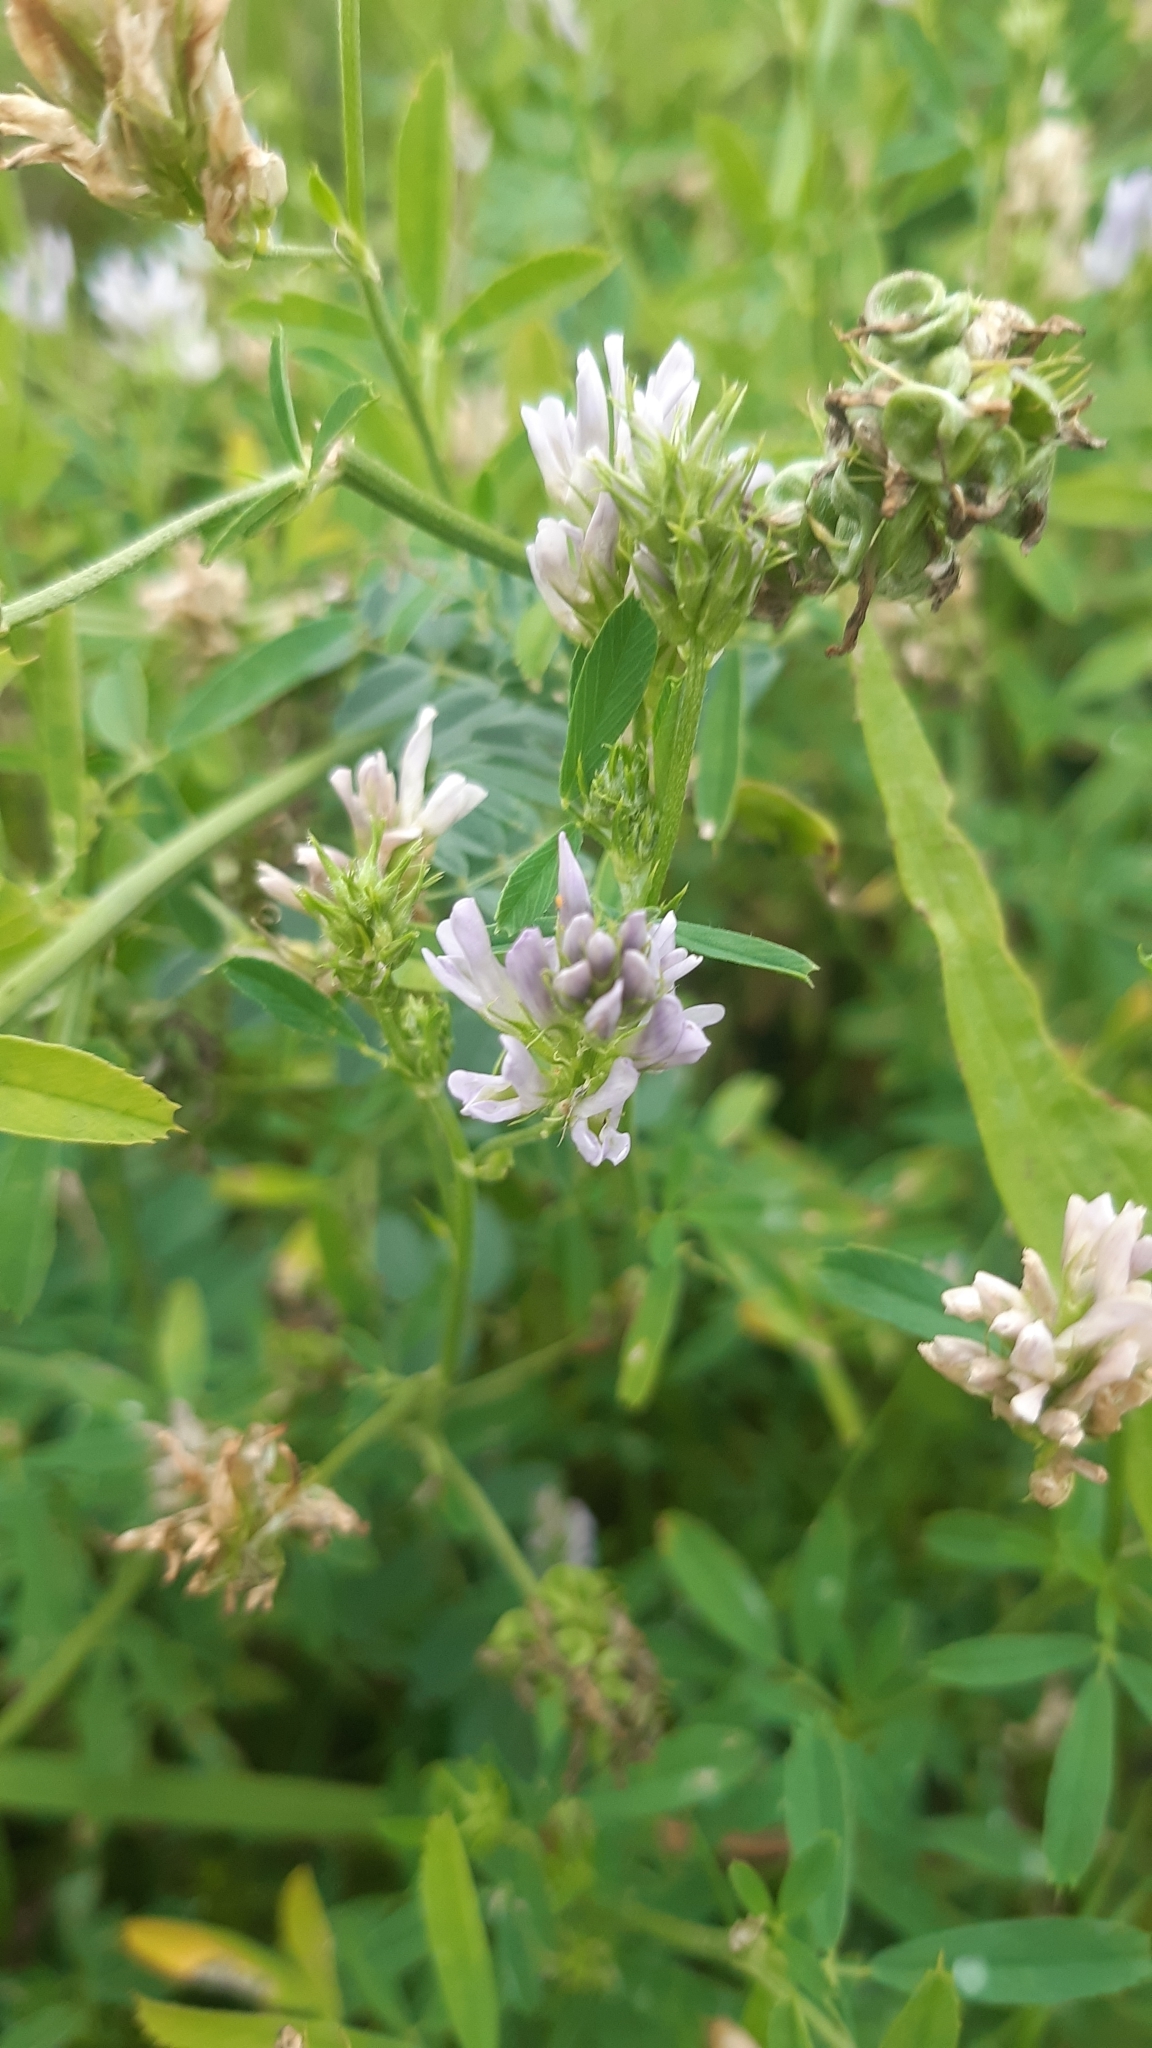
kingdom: Plantae
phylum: Tracheophyta
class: Magnoliopsida
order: Fabales
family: Fabaceae
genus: Medicago
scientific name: Medicago sativa
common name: Alfalfa
